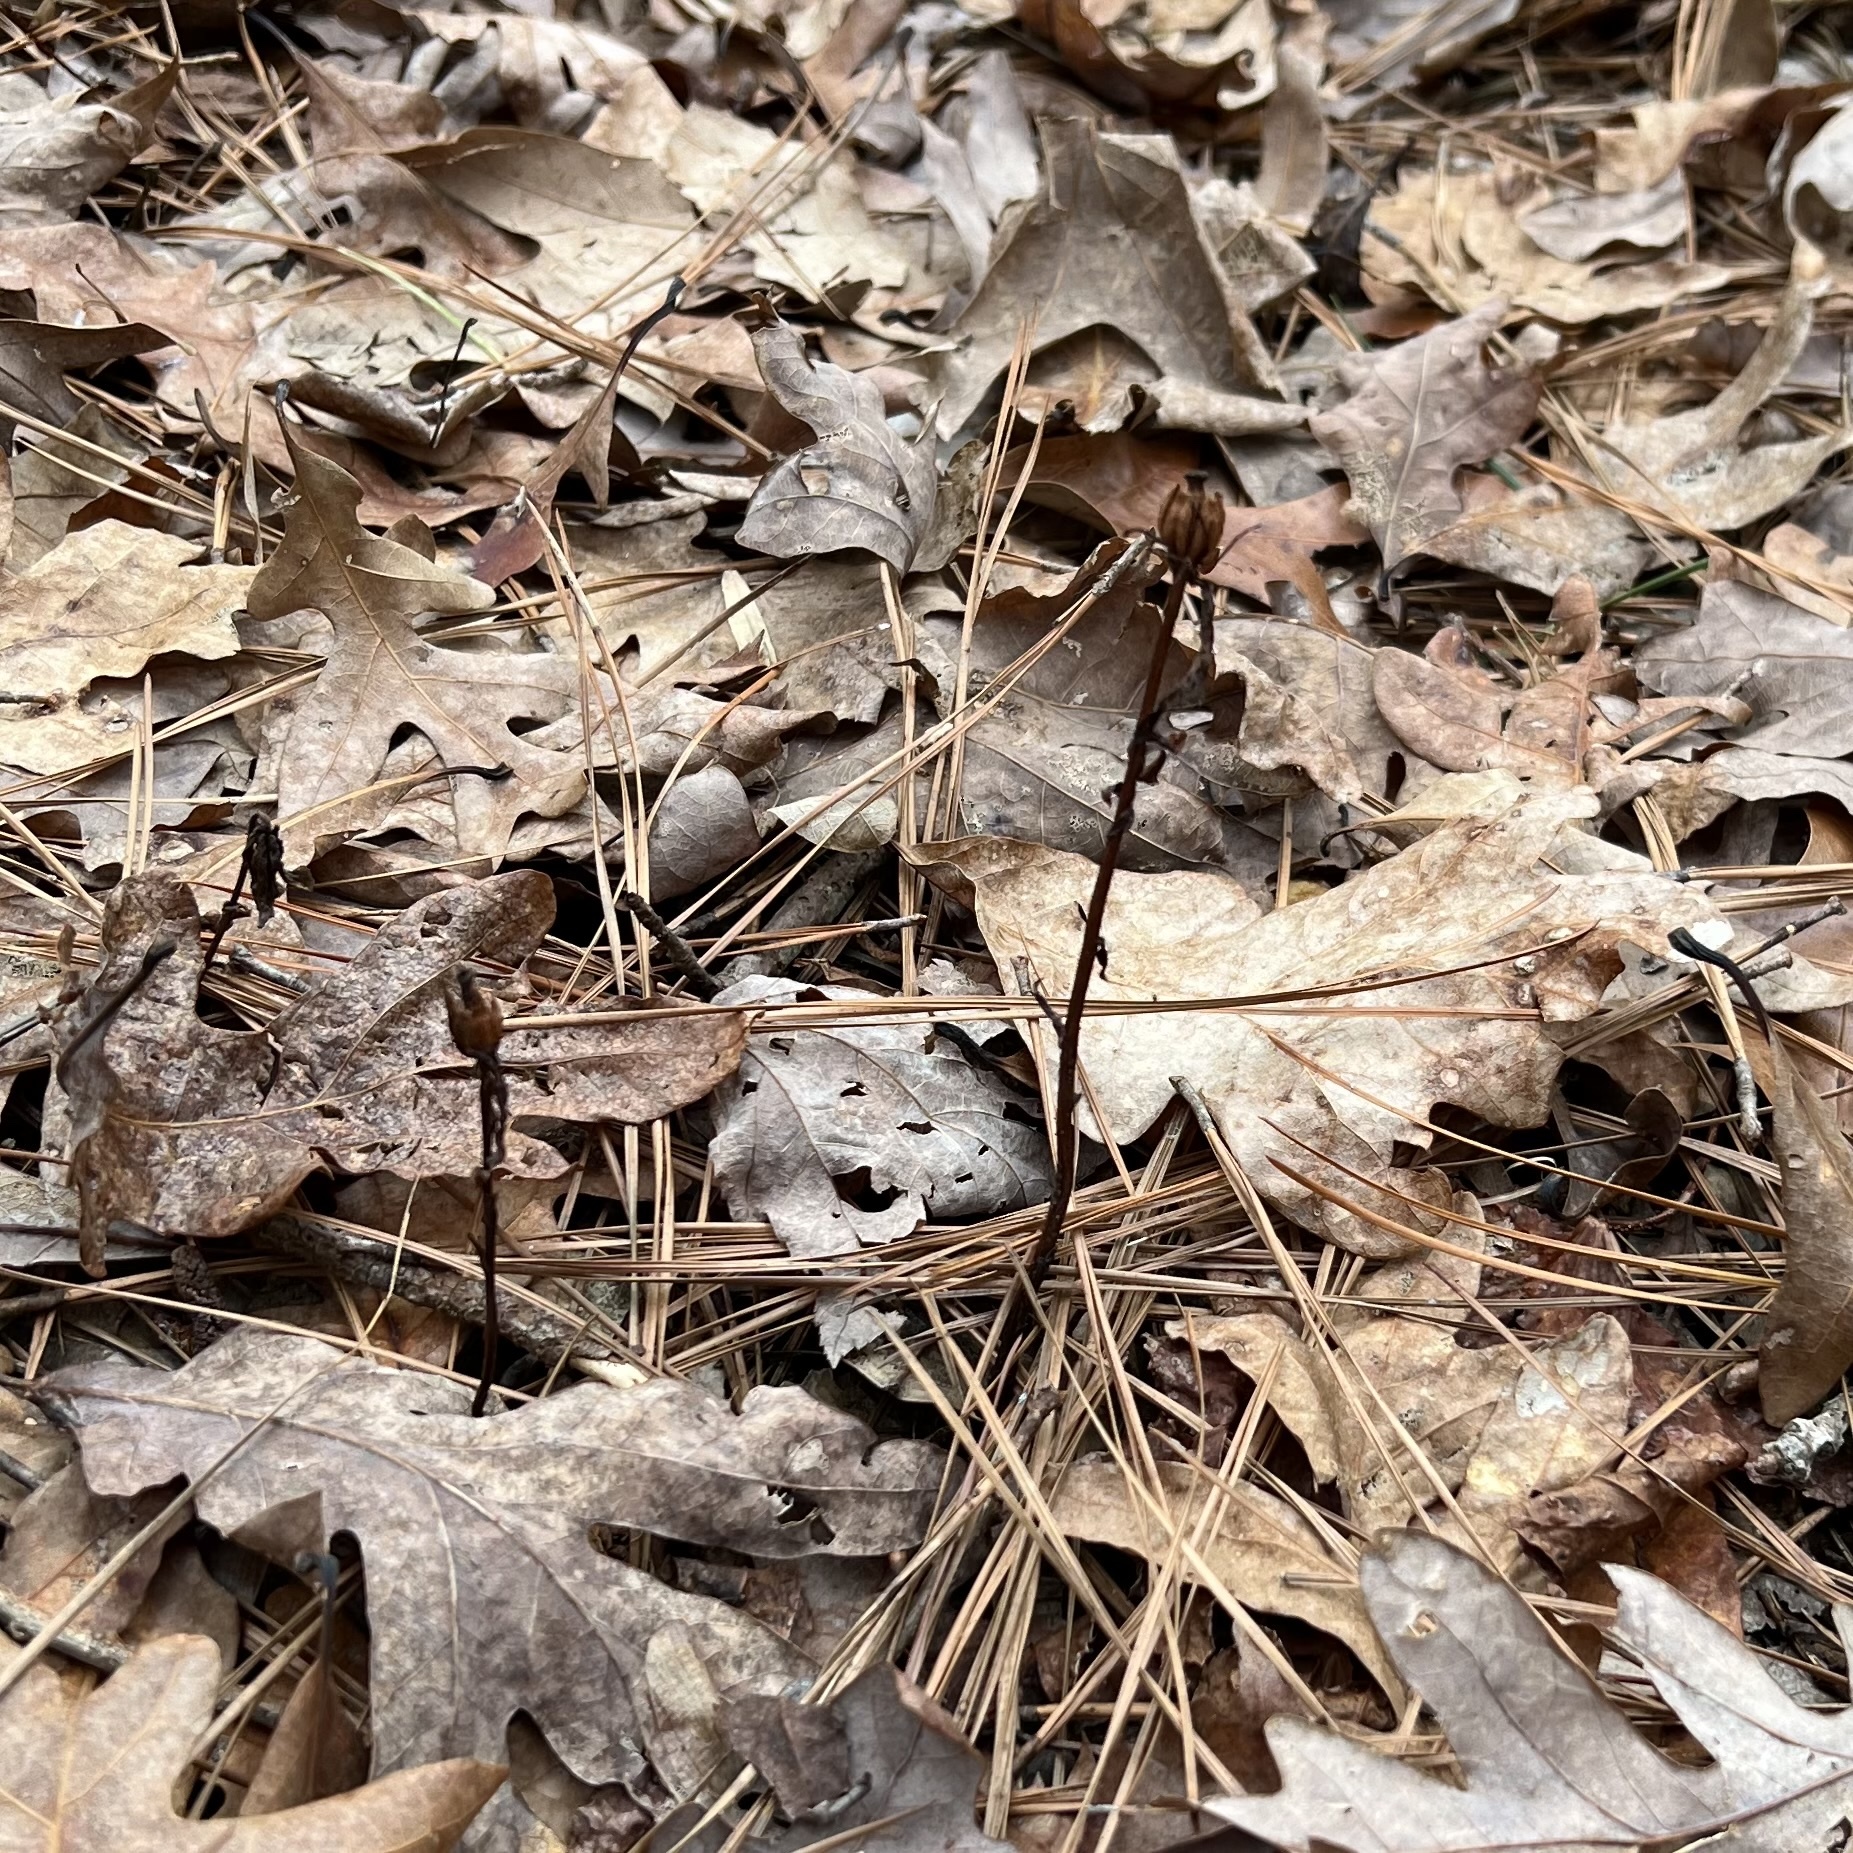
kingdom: Plantae
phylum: Tracheophyta
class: Magnoliopsida
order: Ericales
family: Ericaceae
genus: Monotropa
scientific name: Monotropa uniflora
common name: Convulsion root
